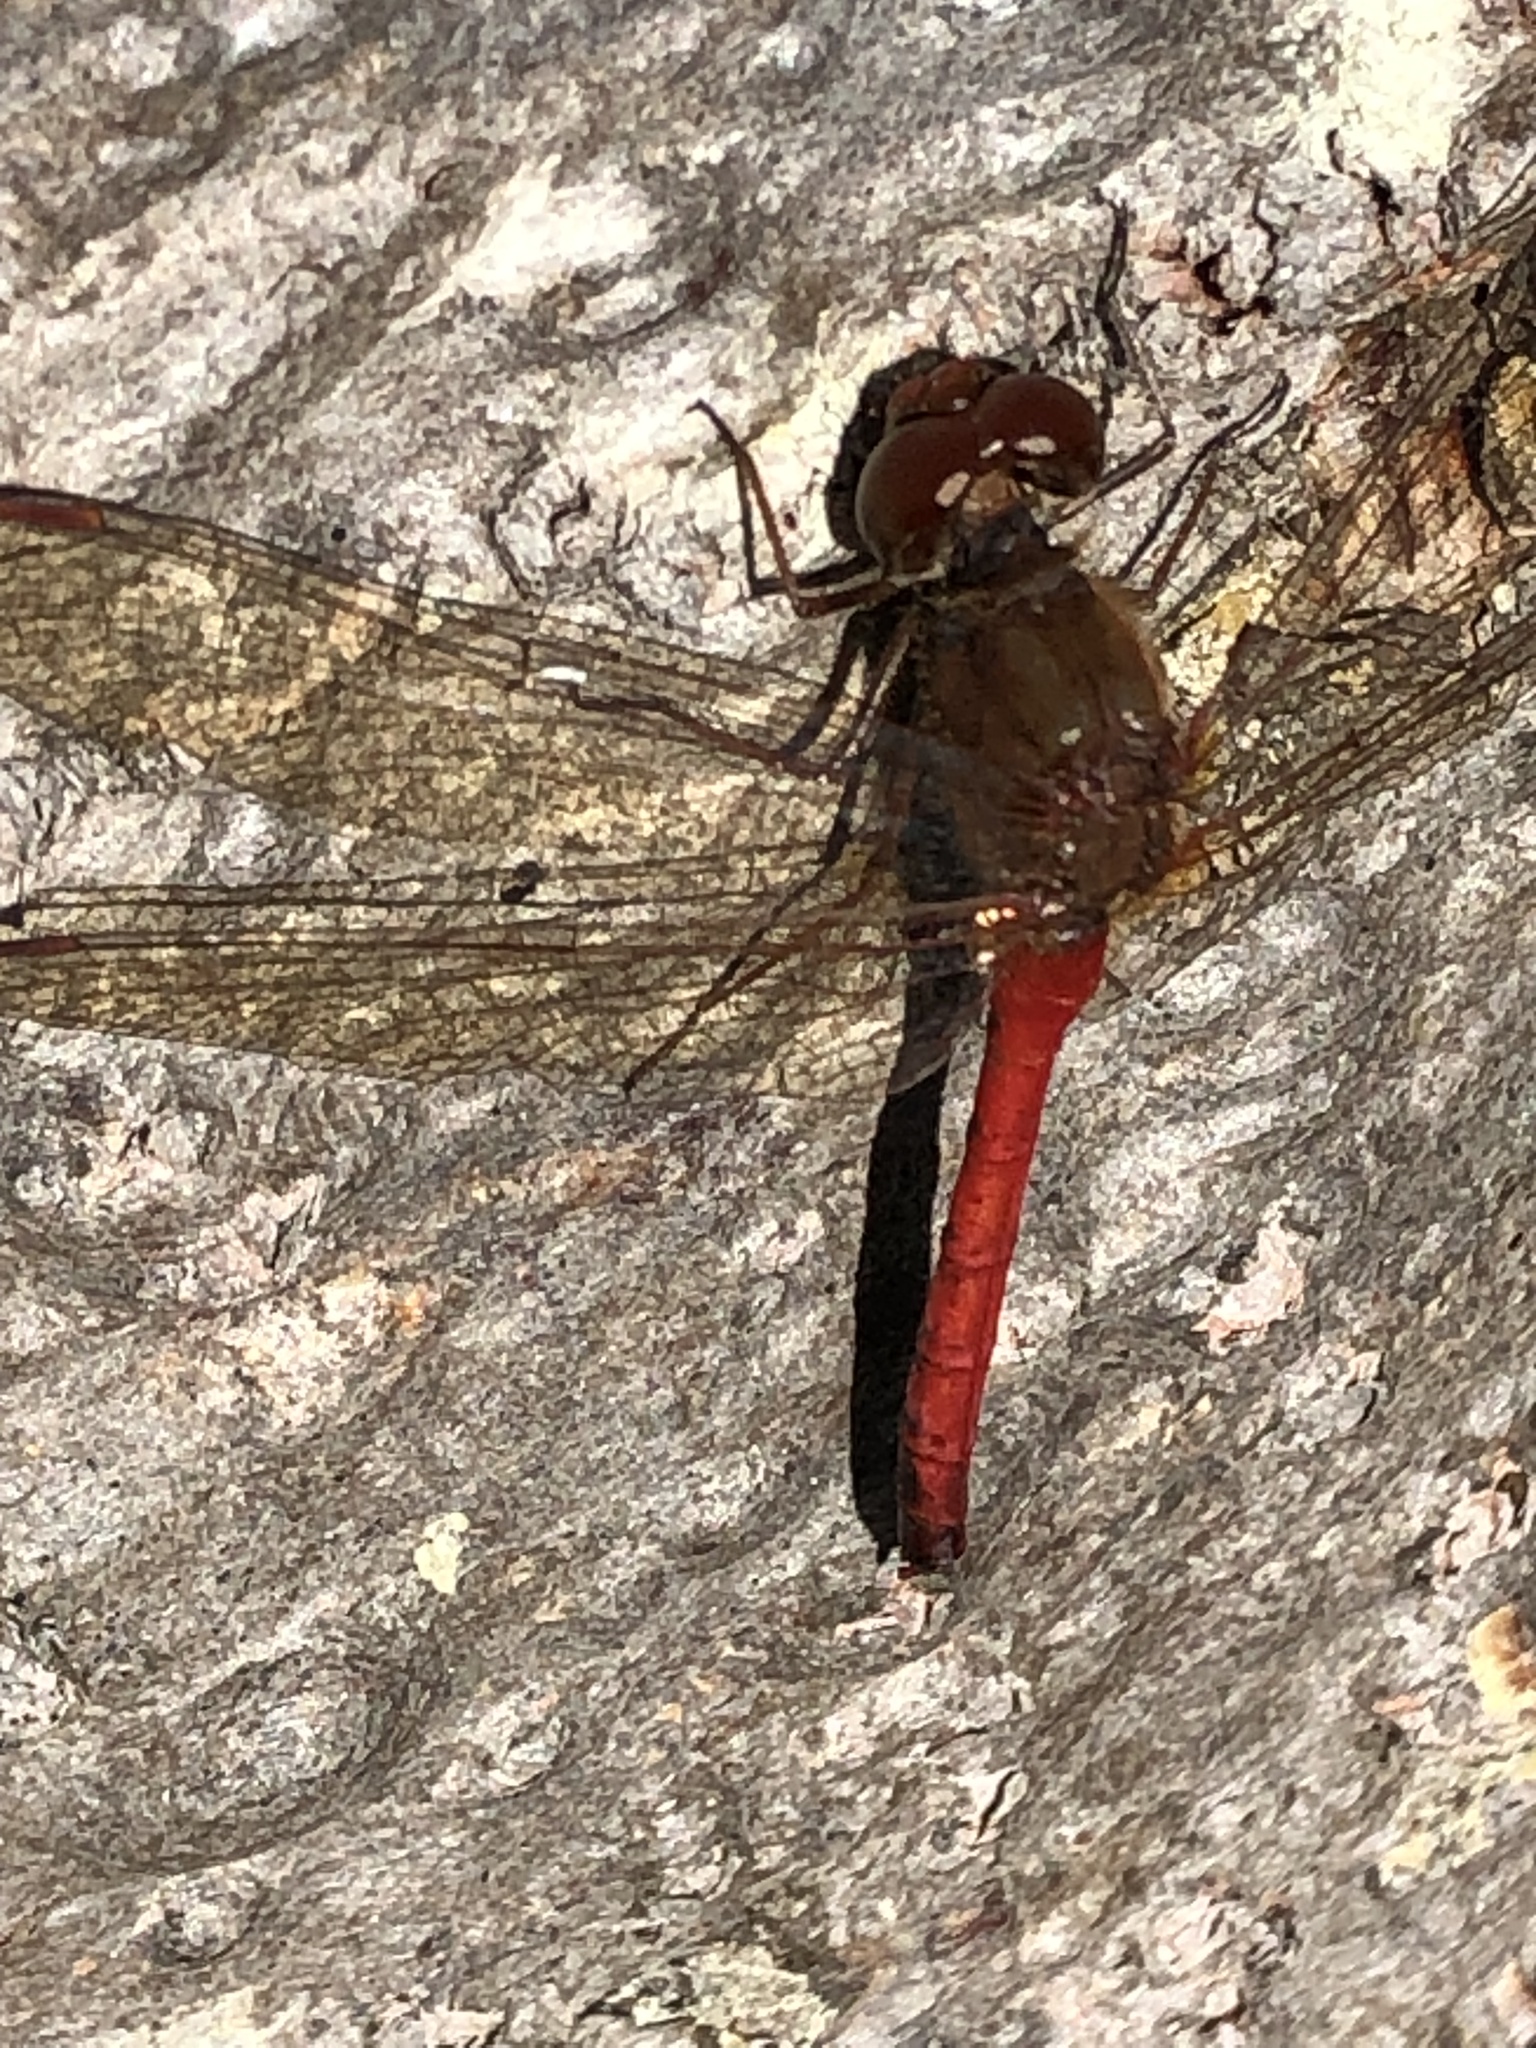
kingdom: Animalia
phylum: Arthropoda
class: Insecta
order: Odonata
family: Libellulidae
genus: Sympetrum
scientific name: Sympetrum vicinum
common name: Autumn meadowhawk
